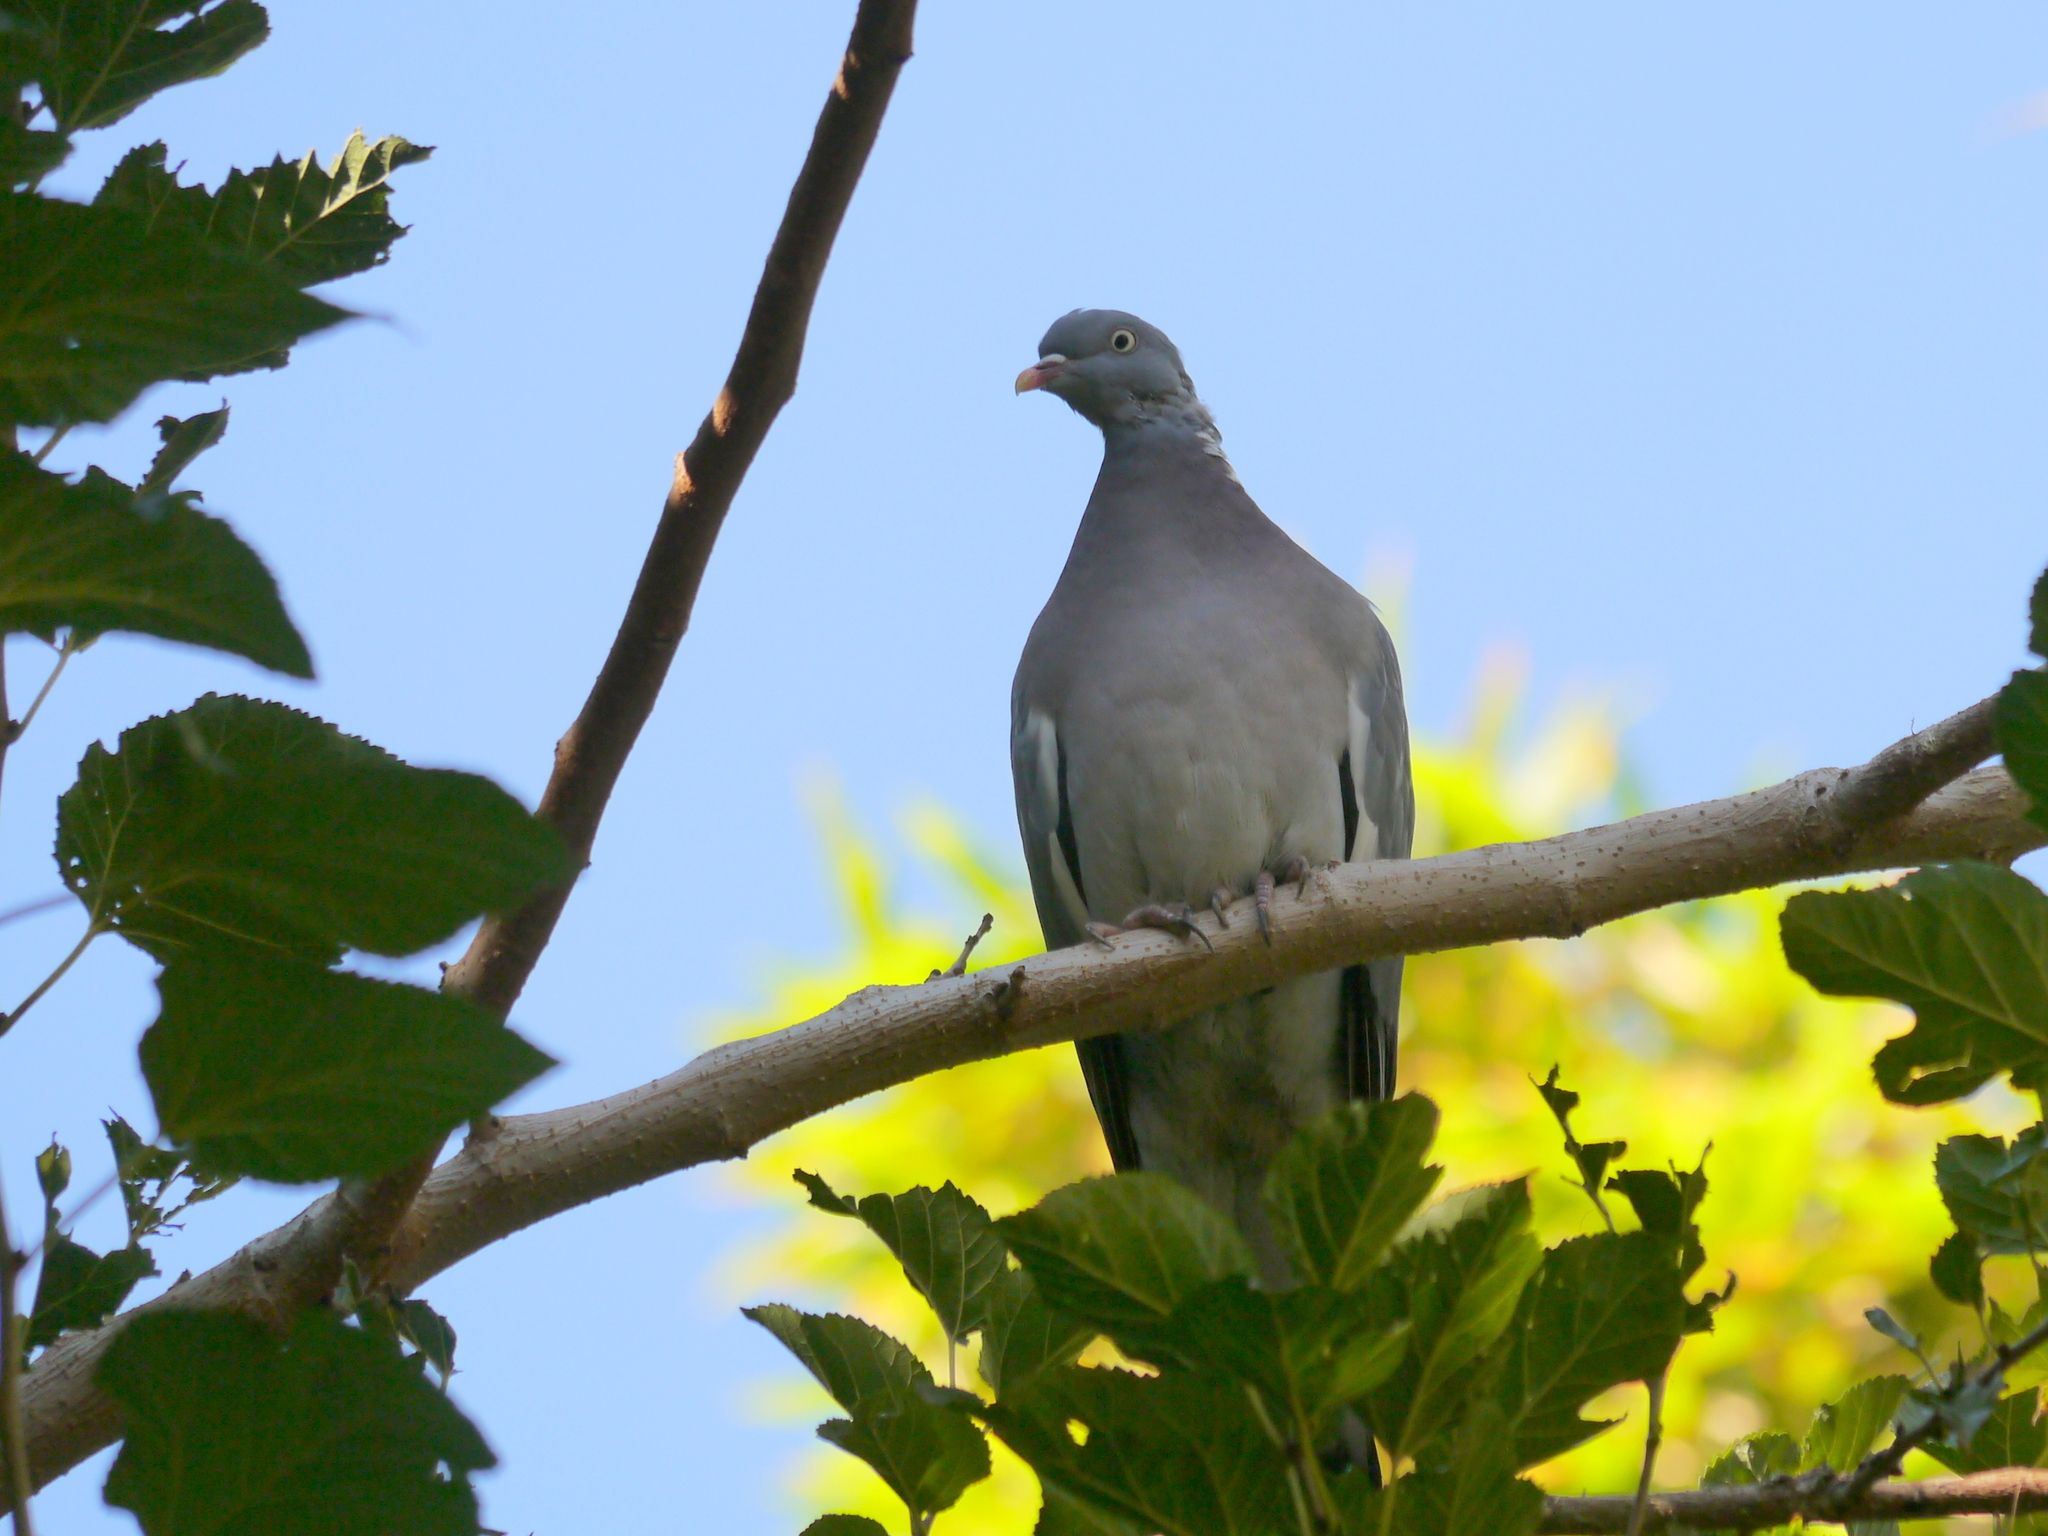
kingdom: Animalia
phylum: Chordata
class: Aves
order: Columbiformes
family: Columbidae
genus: Columba
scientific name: Columba palumbus
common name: Common wood pigeon
